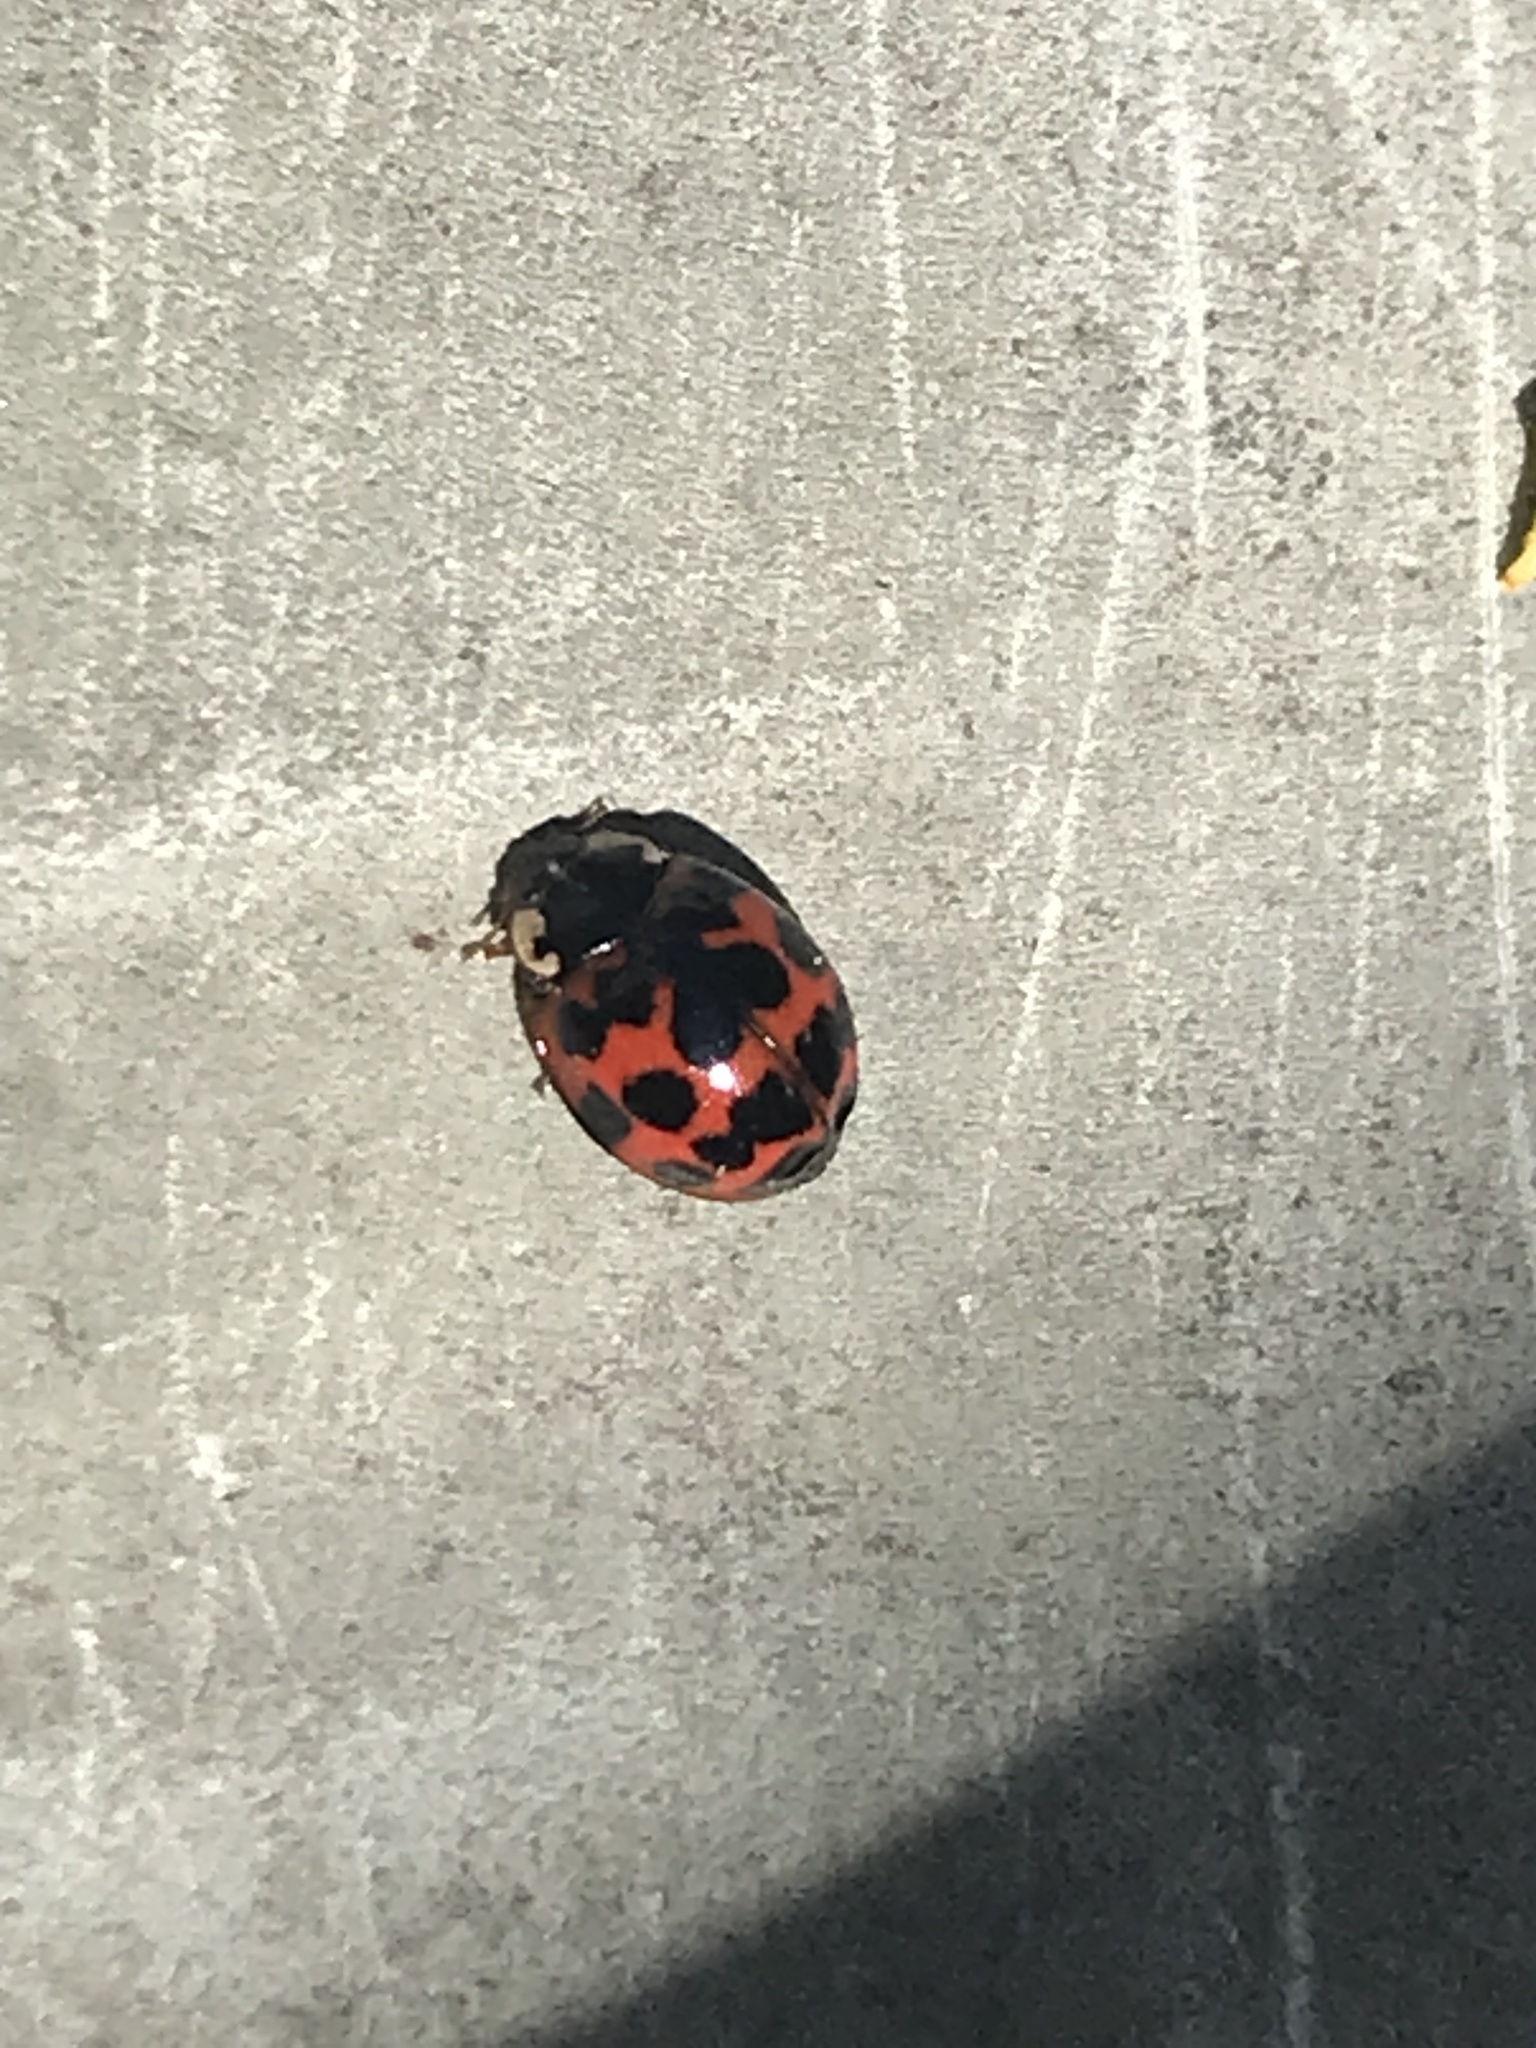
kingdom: Animalia
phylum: Arthropoda
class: Insecta
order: Coleoptera
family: Coccinellidae
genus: Harmonia
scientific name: Harmonia axyridis
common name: Harlequin ladybird
